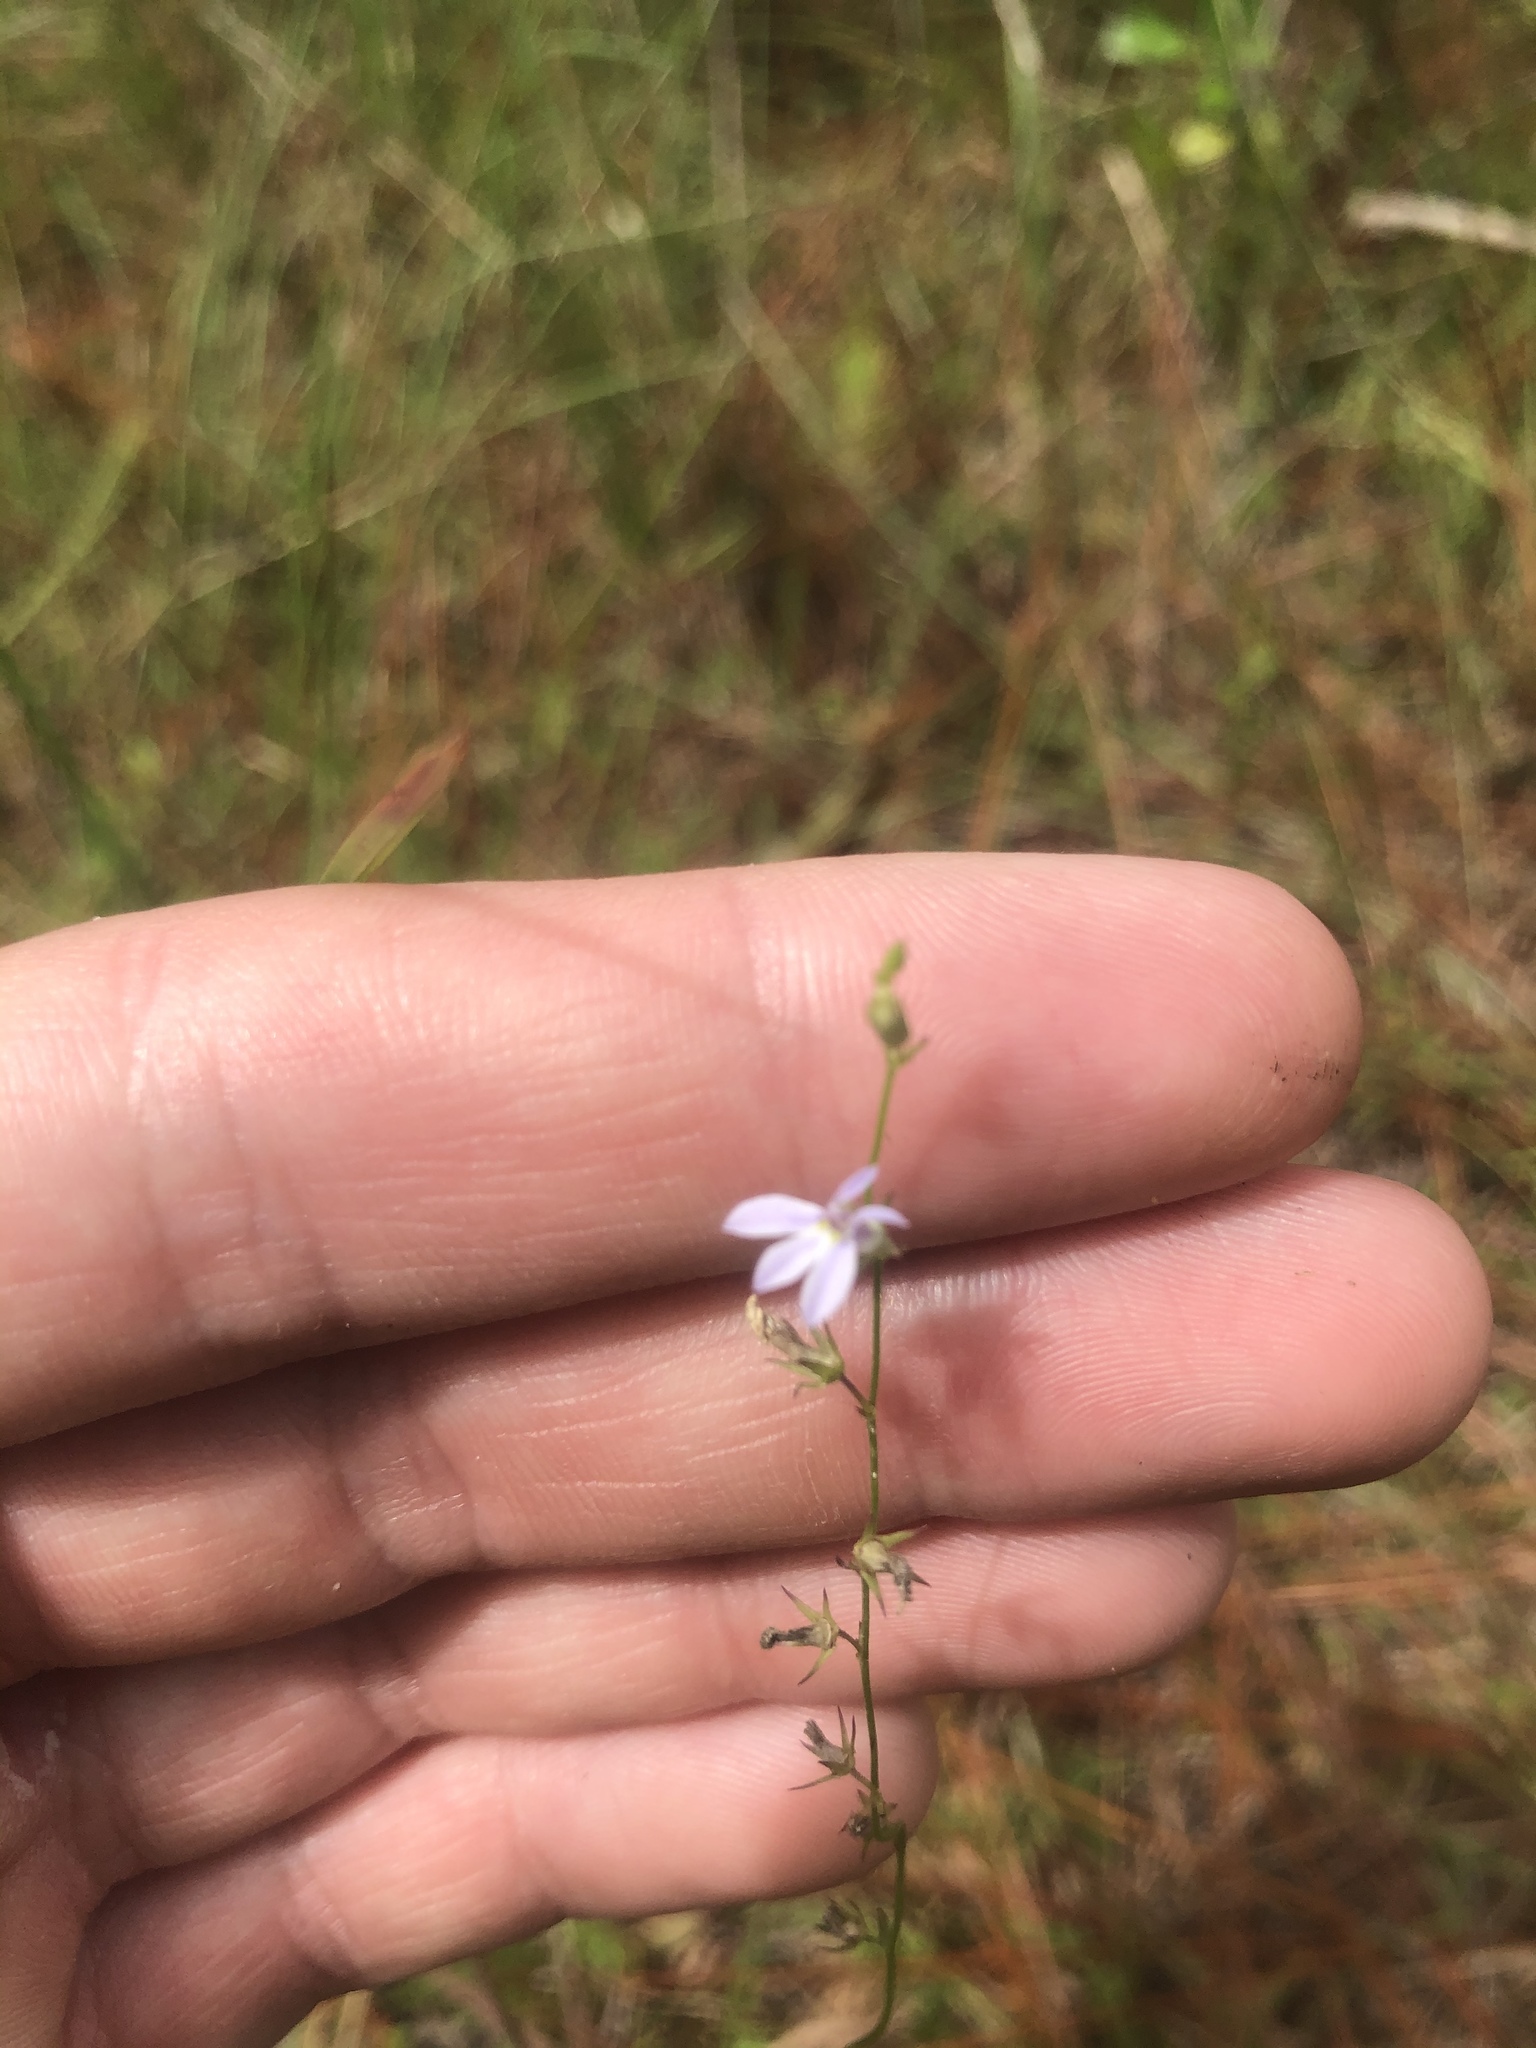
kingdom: Plantae
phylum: Tracheophyta
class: Magnoliopsida
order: Asterales
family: Campanulaceae
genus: Lobelia
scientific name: Lobelia nuttallii
